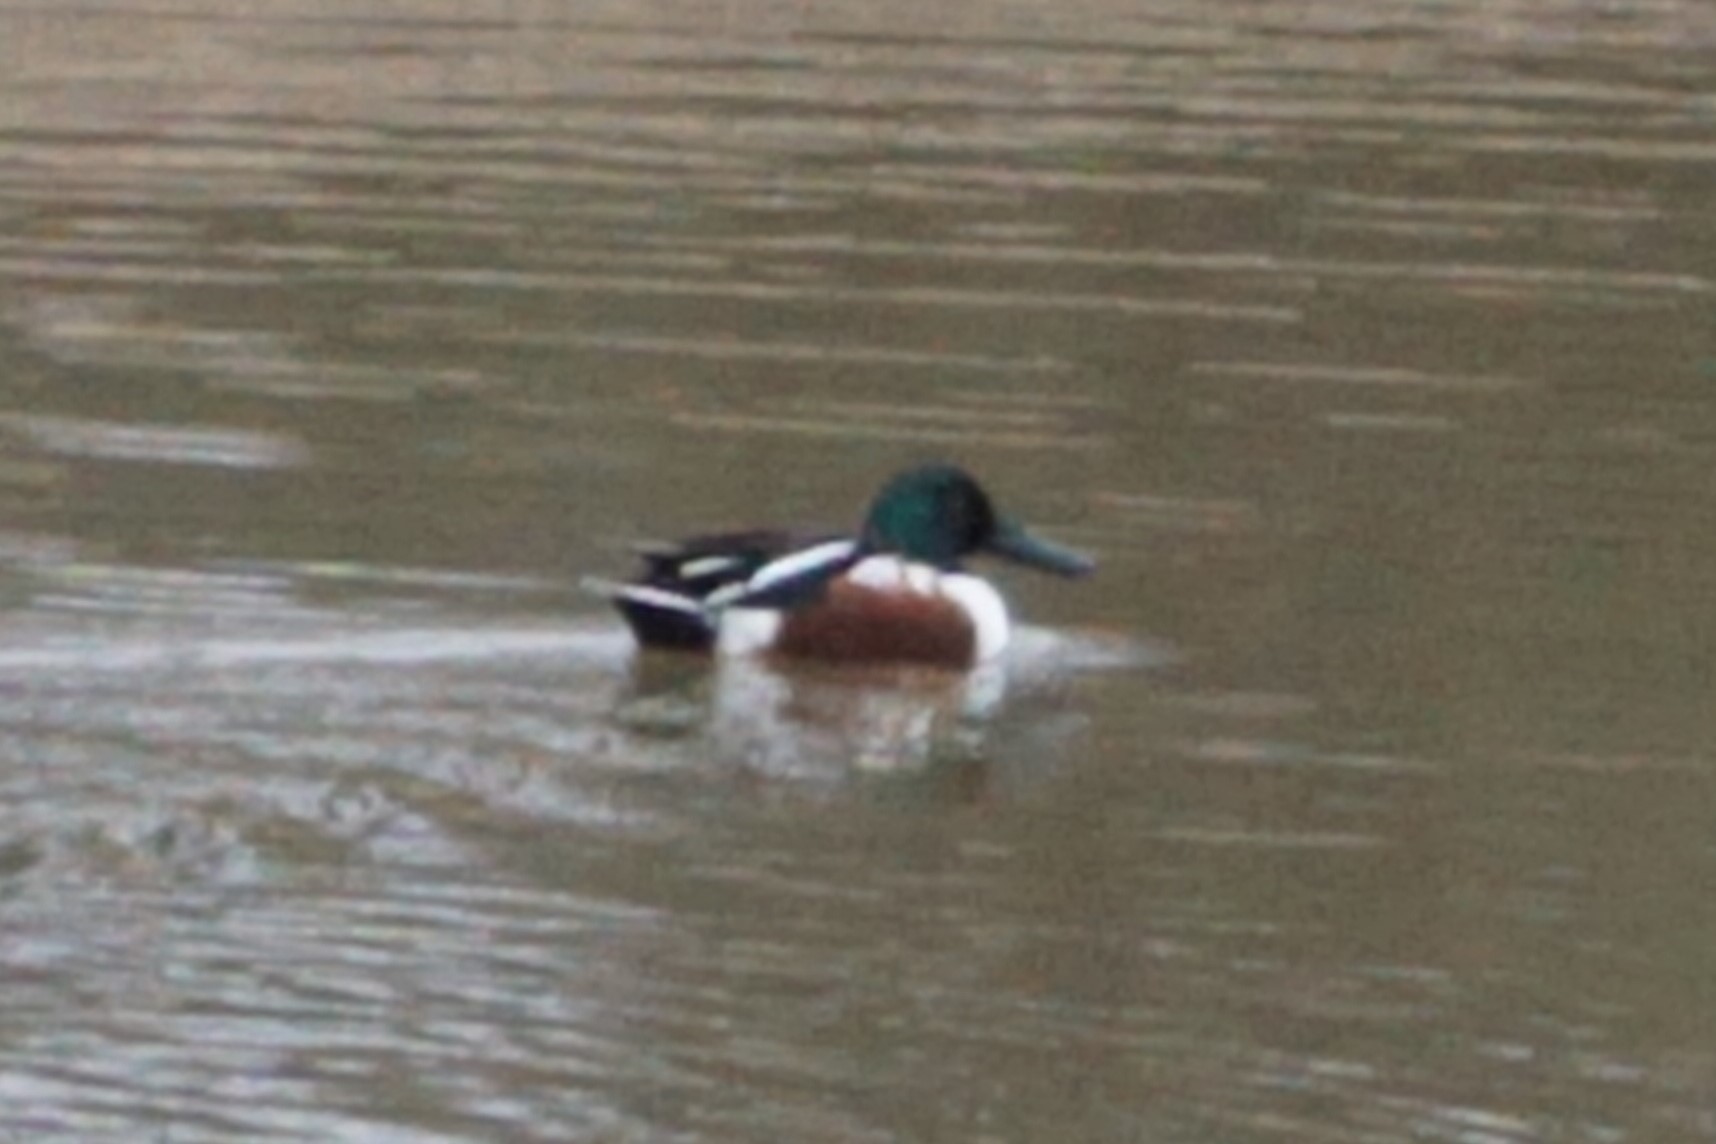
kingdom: Animalia
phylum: Chordata
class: Aves
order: Anseriformes
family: Anatidae
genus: Spatula
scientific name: Spatula clypeata
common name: Northern shoveler
